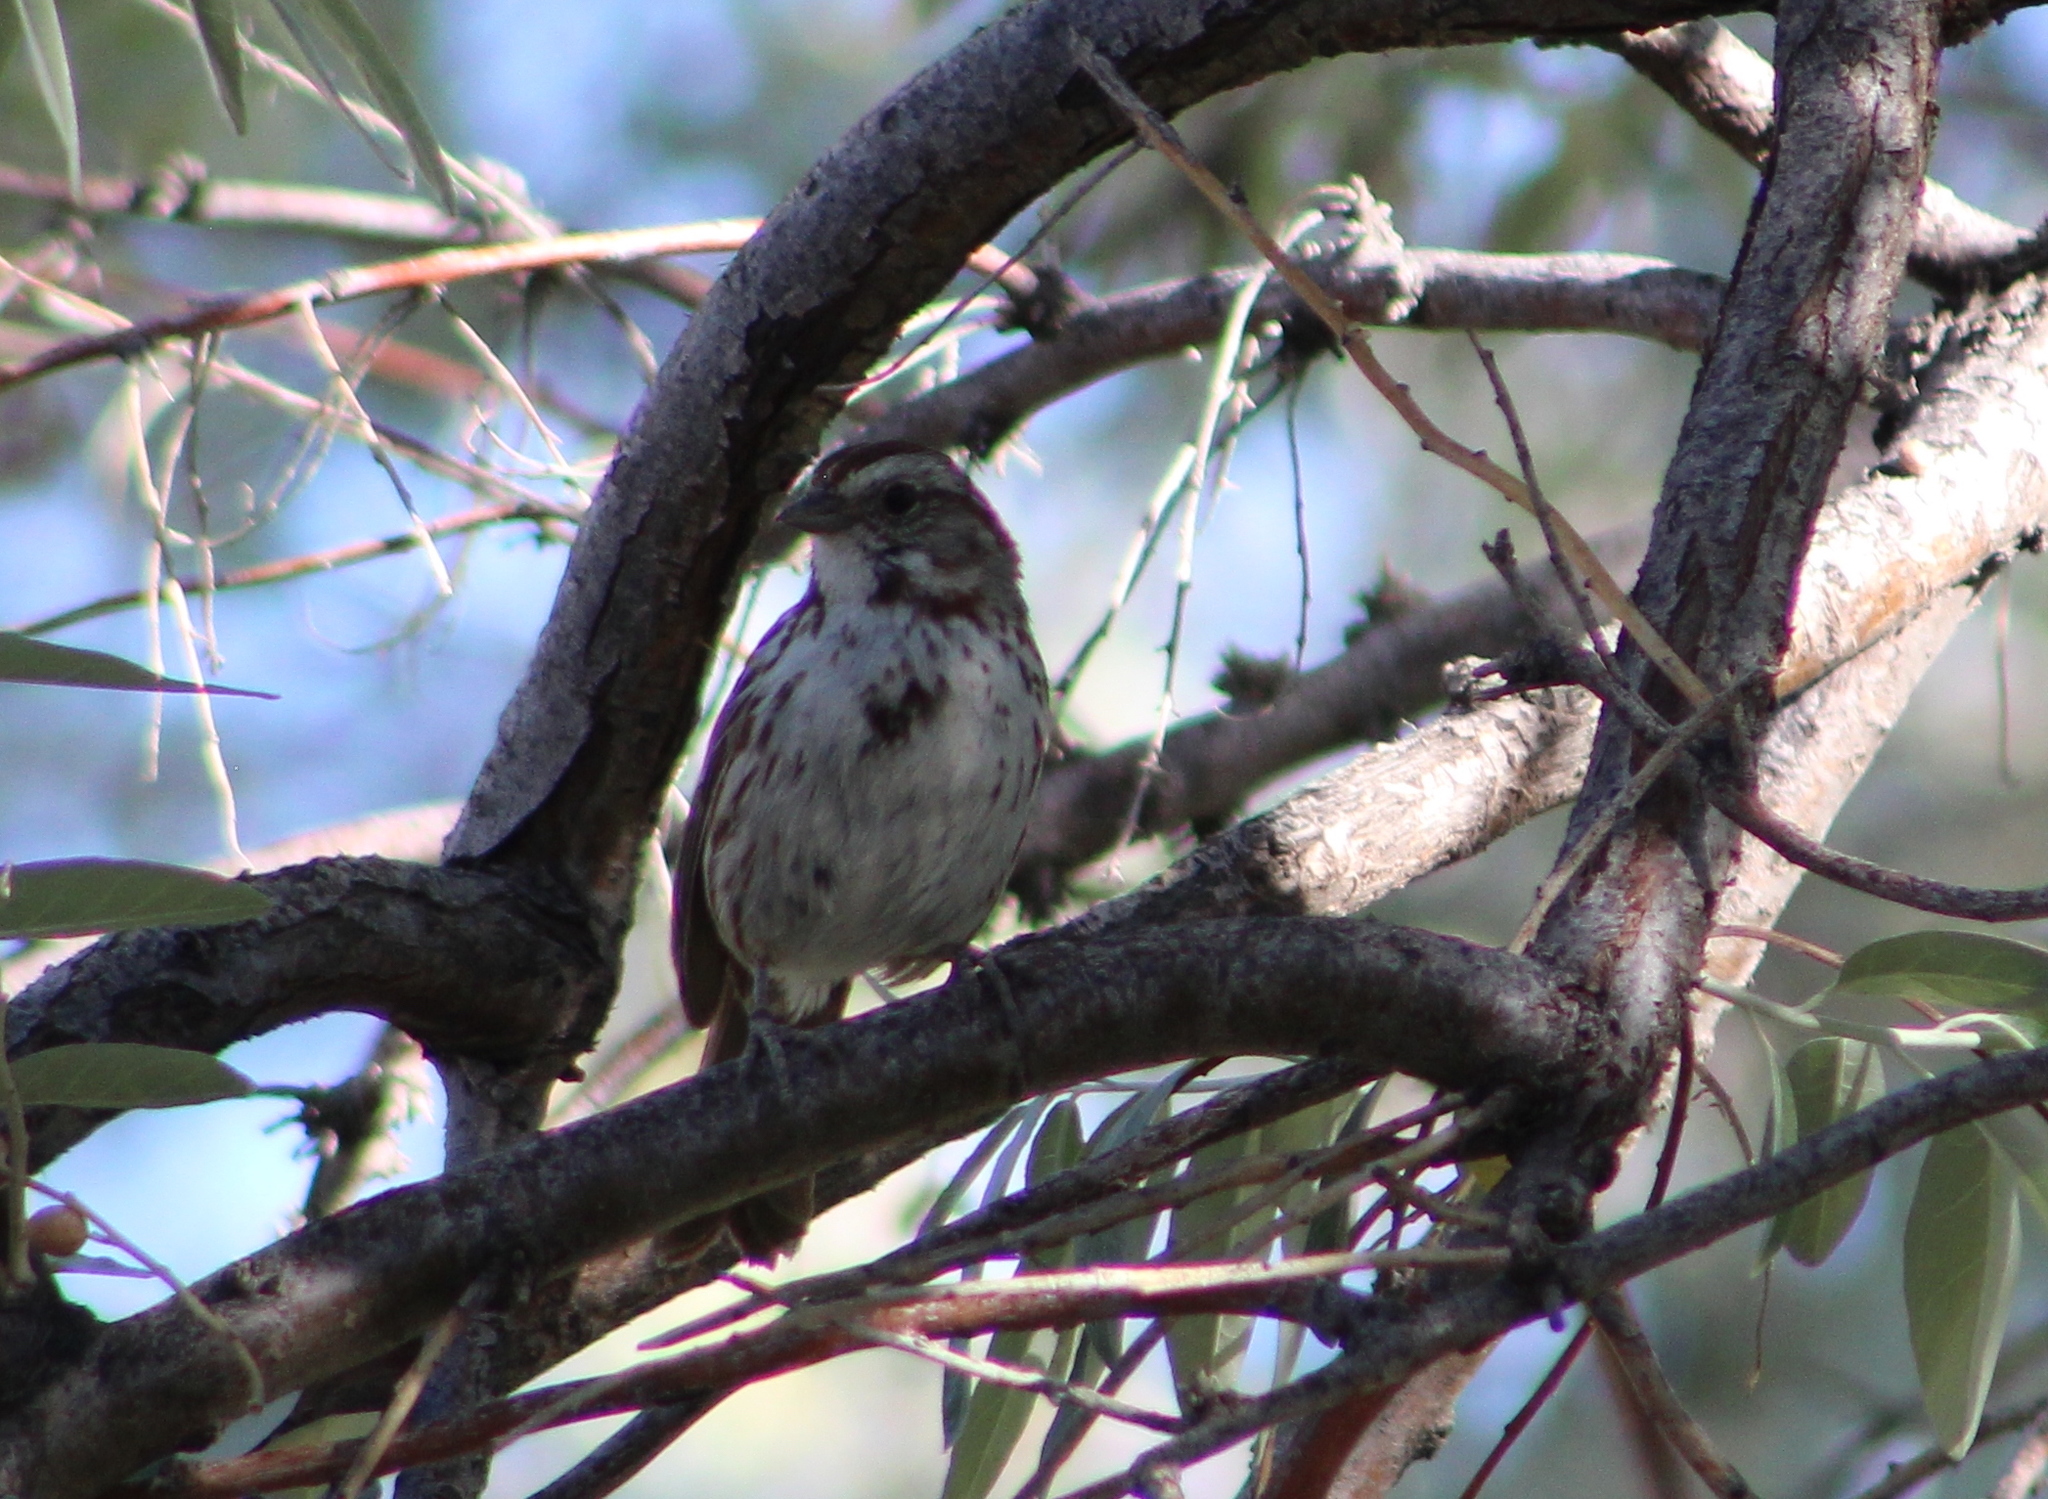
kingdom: Animalia
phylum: Chordata
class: Aves
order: Passeriformes
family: Passerellidae
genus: Melospiza
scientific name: Melospiza melodia
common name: Song sparrow
